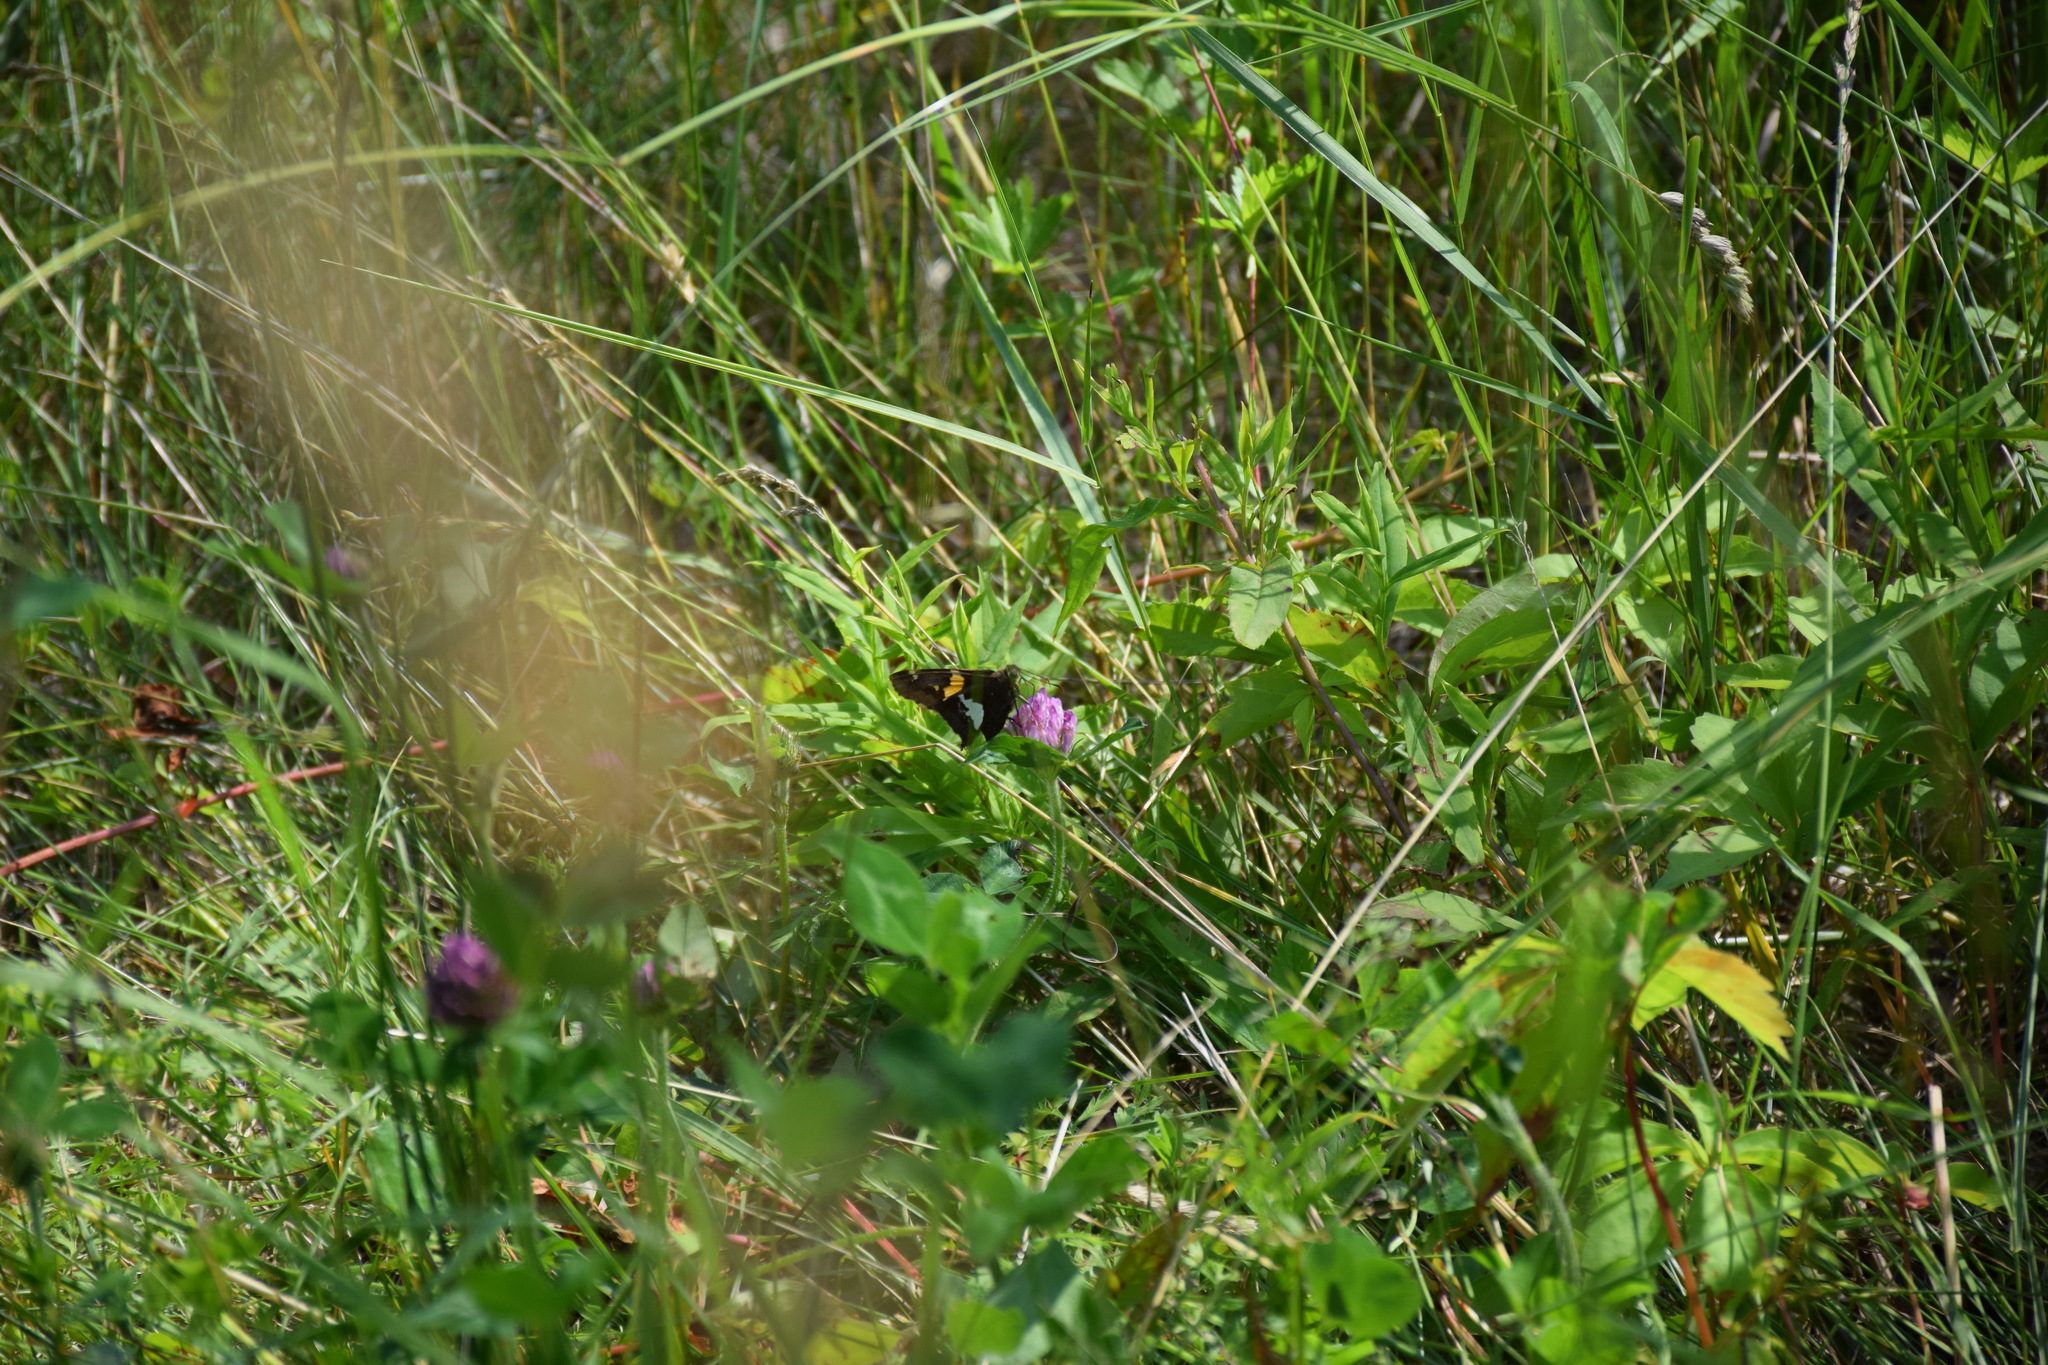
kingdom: Animalia
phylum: Arthropoda
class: Insecta
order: Lepidoptera
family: Hesperiidae
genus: Epargyreus
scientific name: Epargyreus clarus
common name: Silver-spotted skipper
